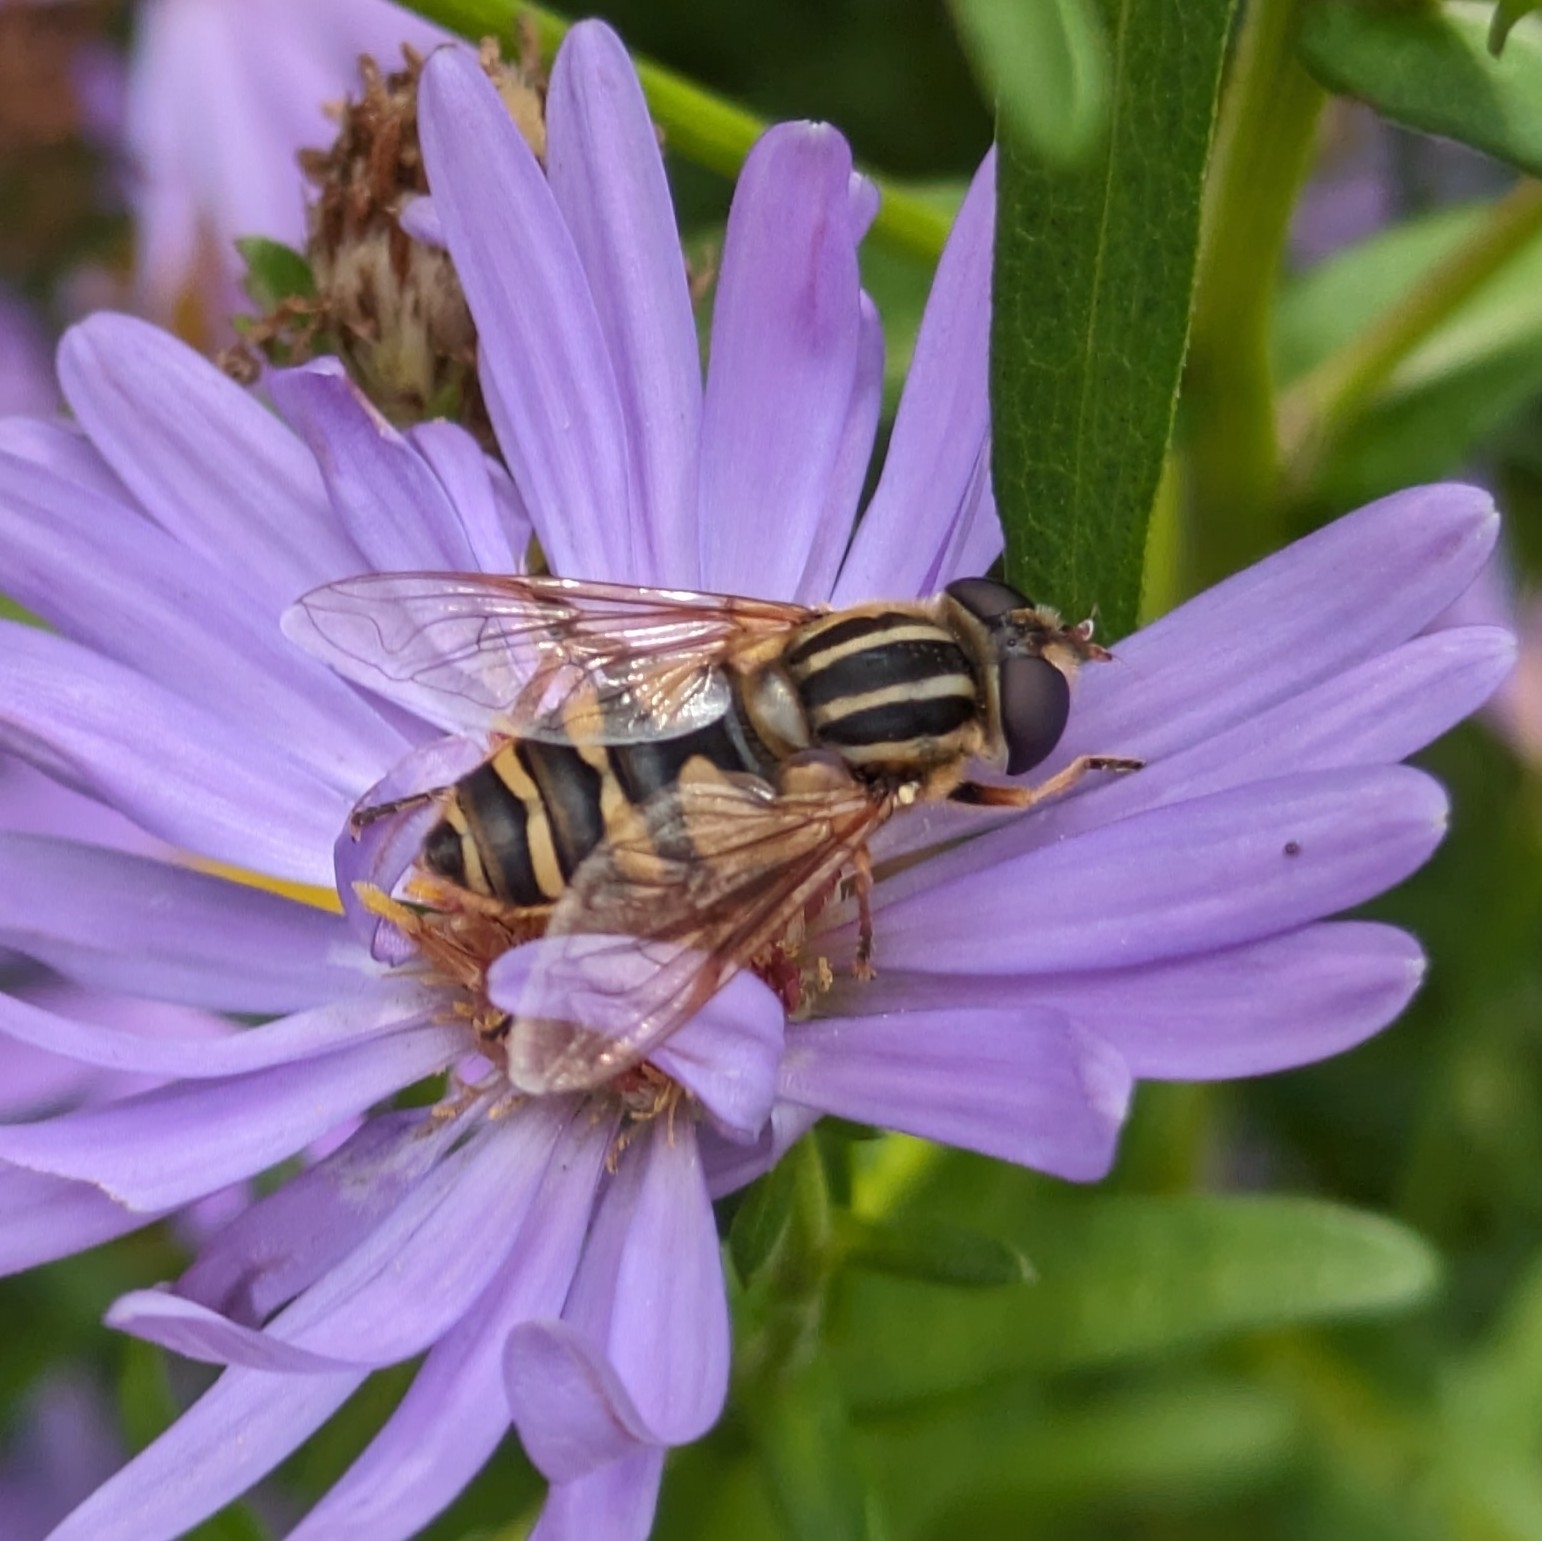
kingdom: Animalia
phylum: Arthropoda
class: Insecta
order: Diptera
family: Syrphidae
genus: Helophilus
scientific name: Helophilus fasciatus
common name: Narrow-headed marsh fly
